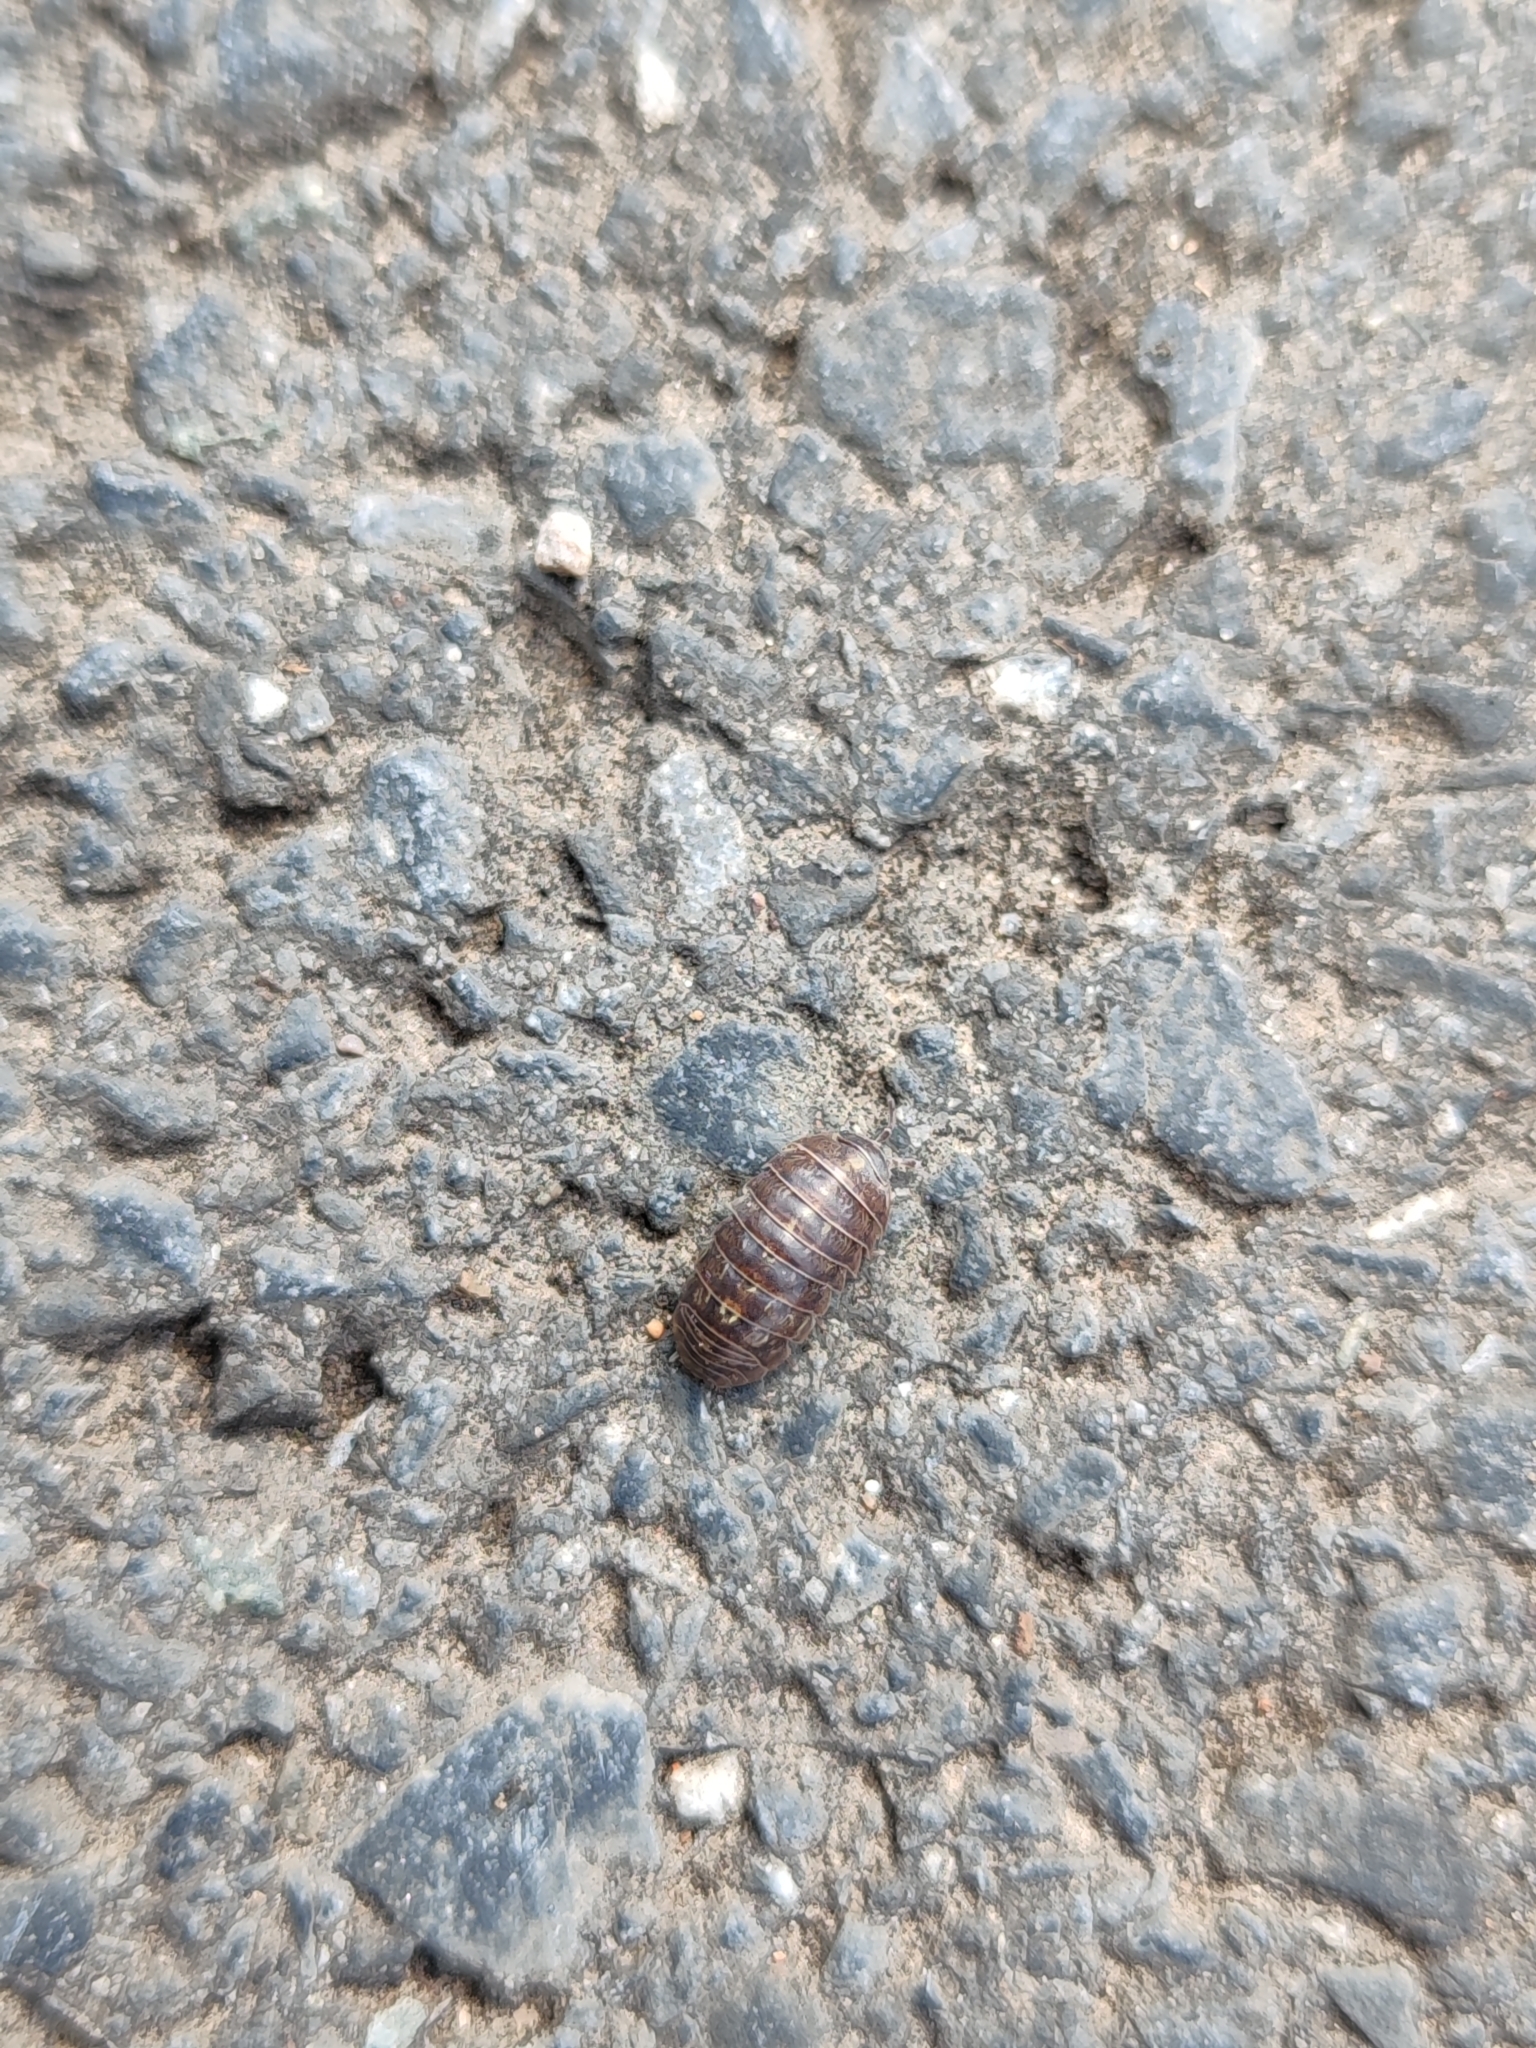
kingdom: Animalia
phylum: Arthropoda
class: Malacostraca
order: Isopoda
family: Armadillidiidae
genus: Armadillidium
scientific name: Armadillidium vulgare
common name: Common pill woodlouse
